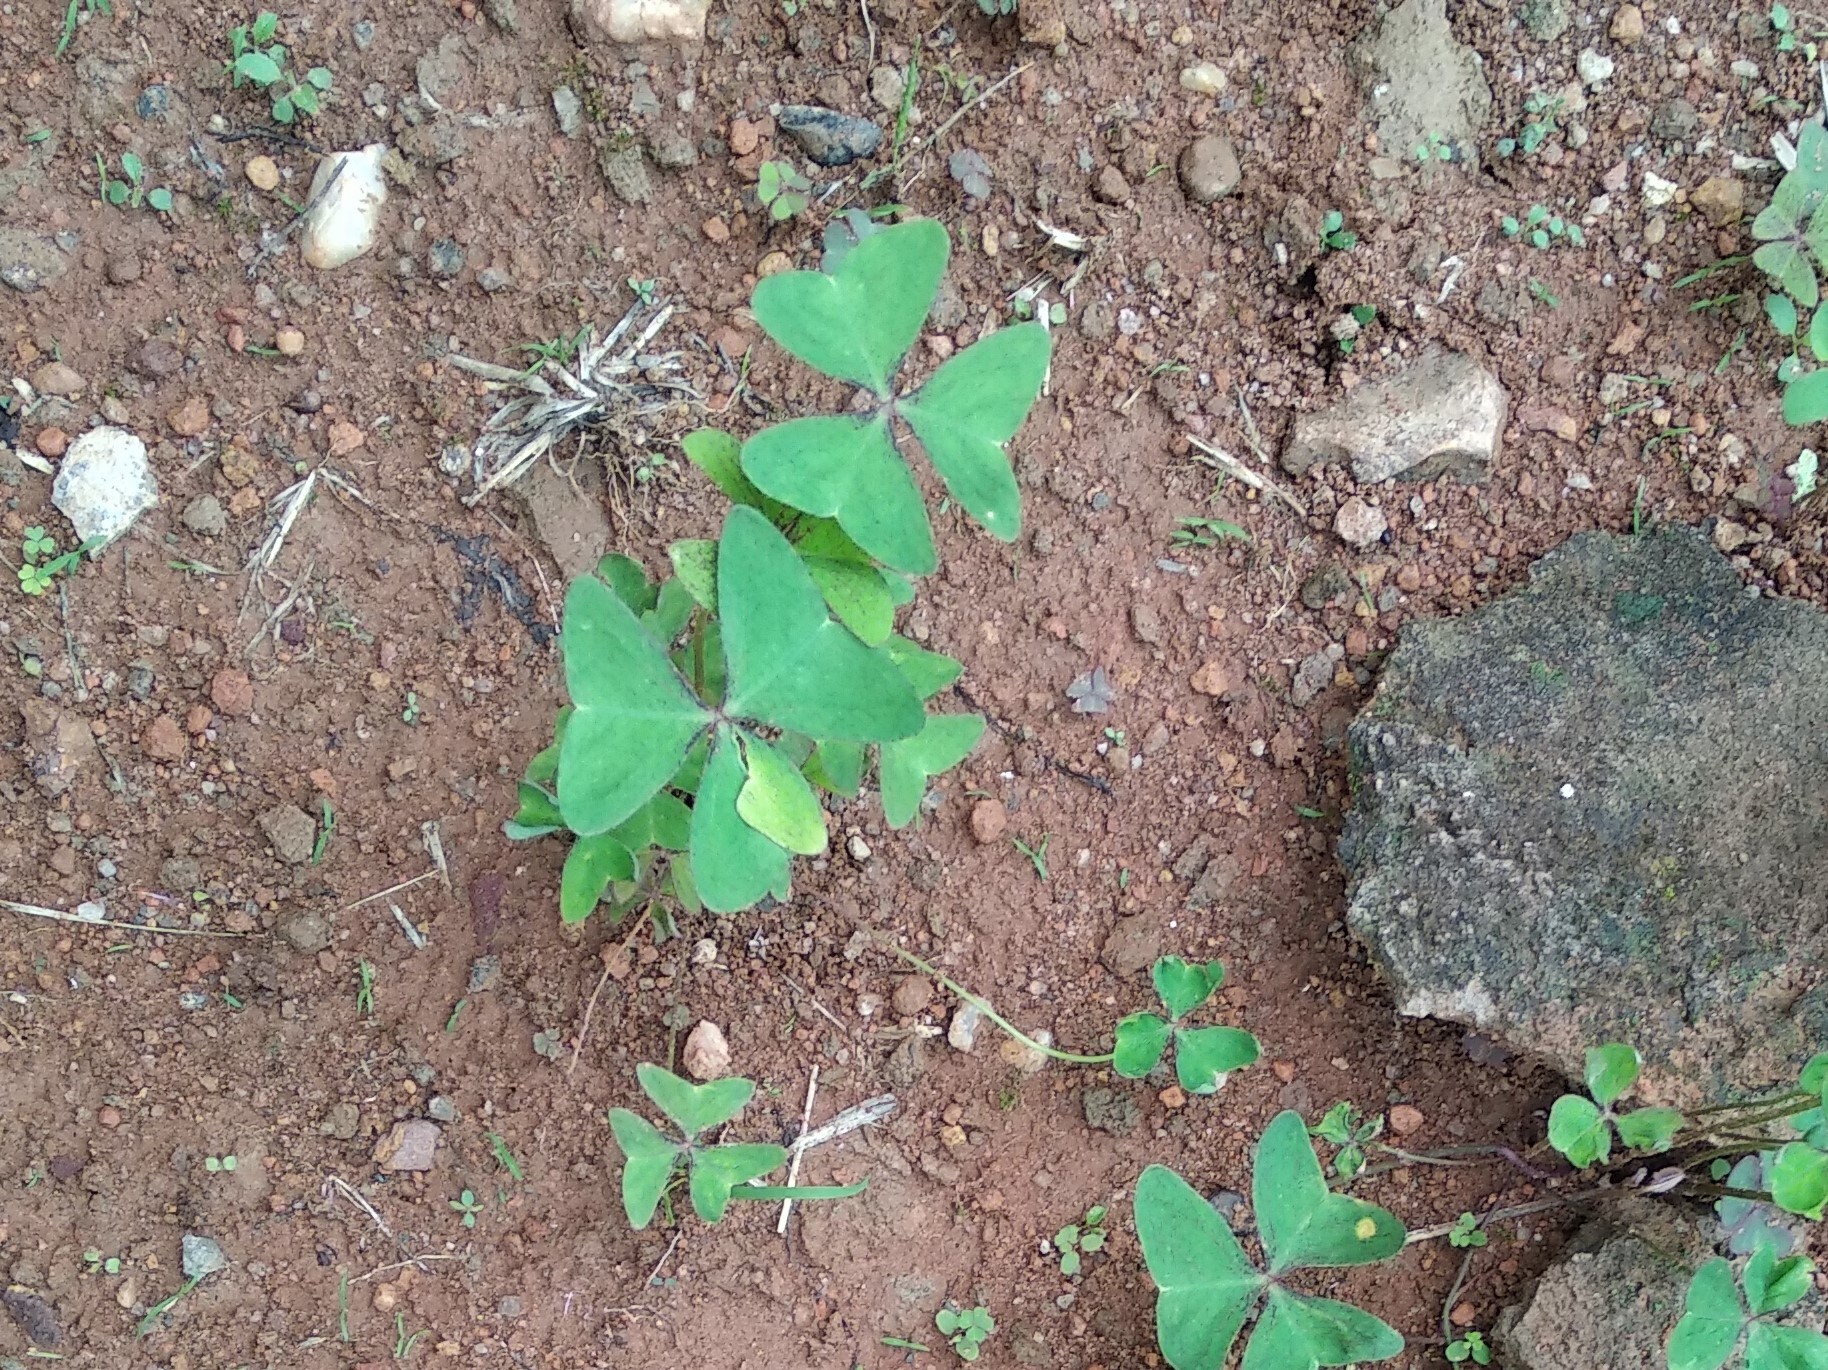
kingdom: Plantae
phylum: Tracheophyta
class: Magnoliopsida
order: Oxalidales
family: Oxalidaceae
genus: Oxalis
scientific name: Oxalis latifolia
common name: Garden pink-sorrel
